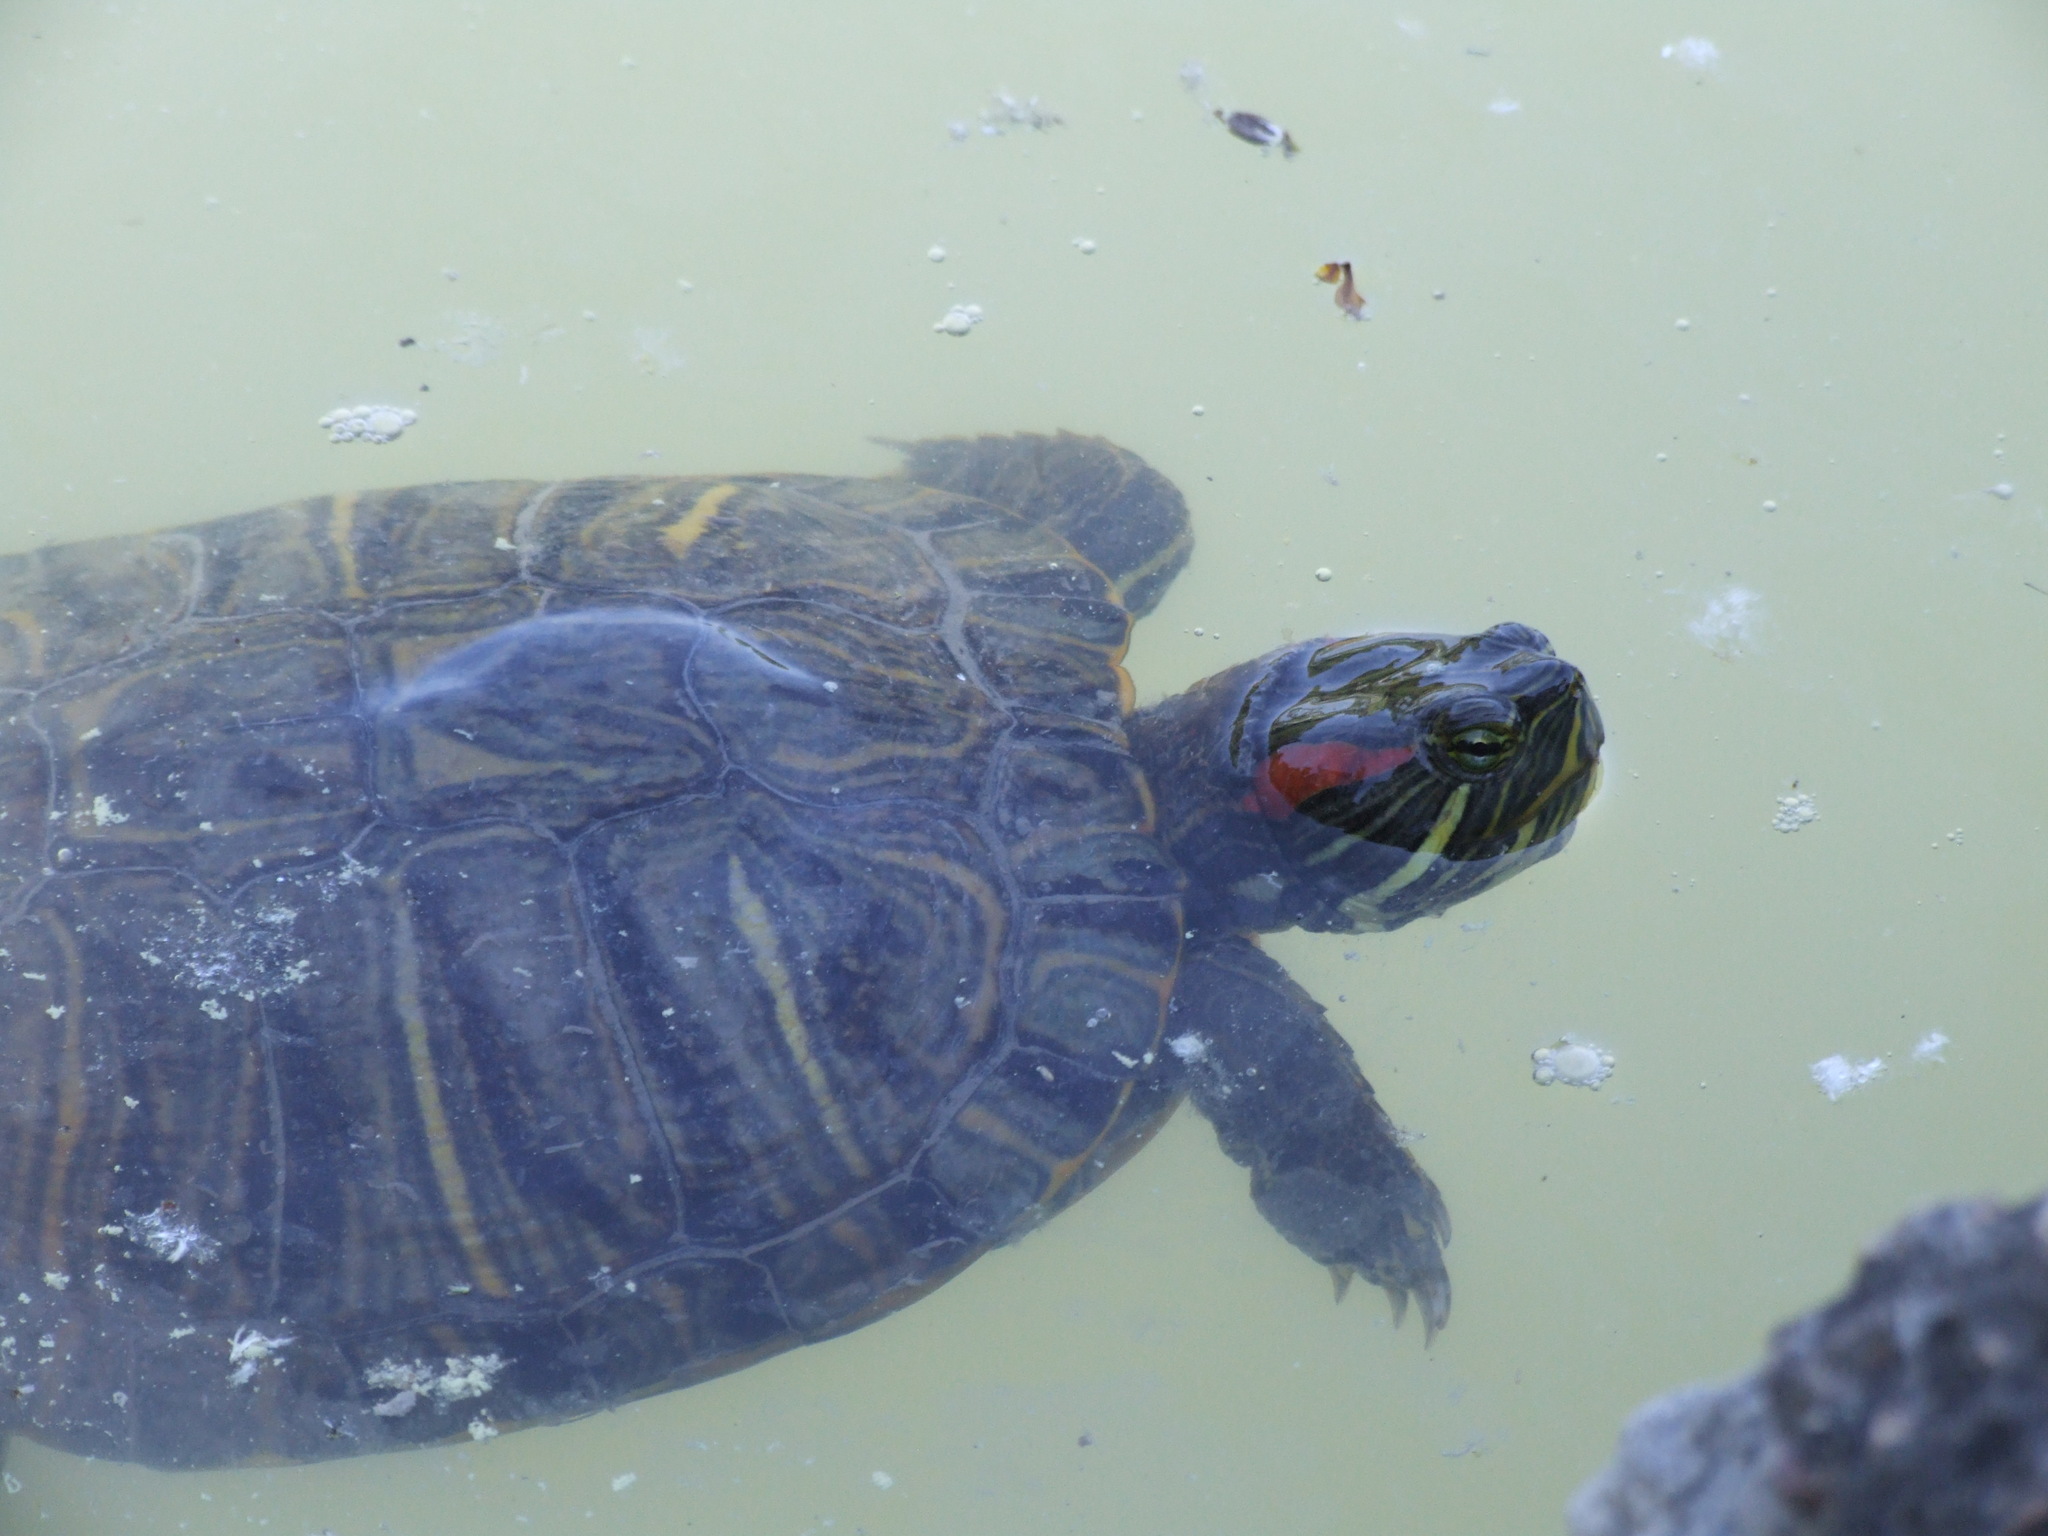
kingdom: Animalia
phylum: Chordata
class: Testudines
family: Emydidae
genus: Trachemys
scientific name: Trachemys scripta
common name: Slider
